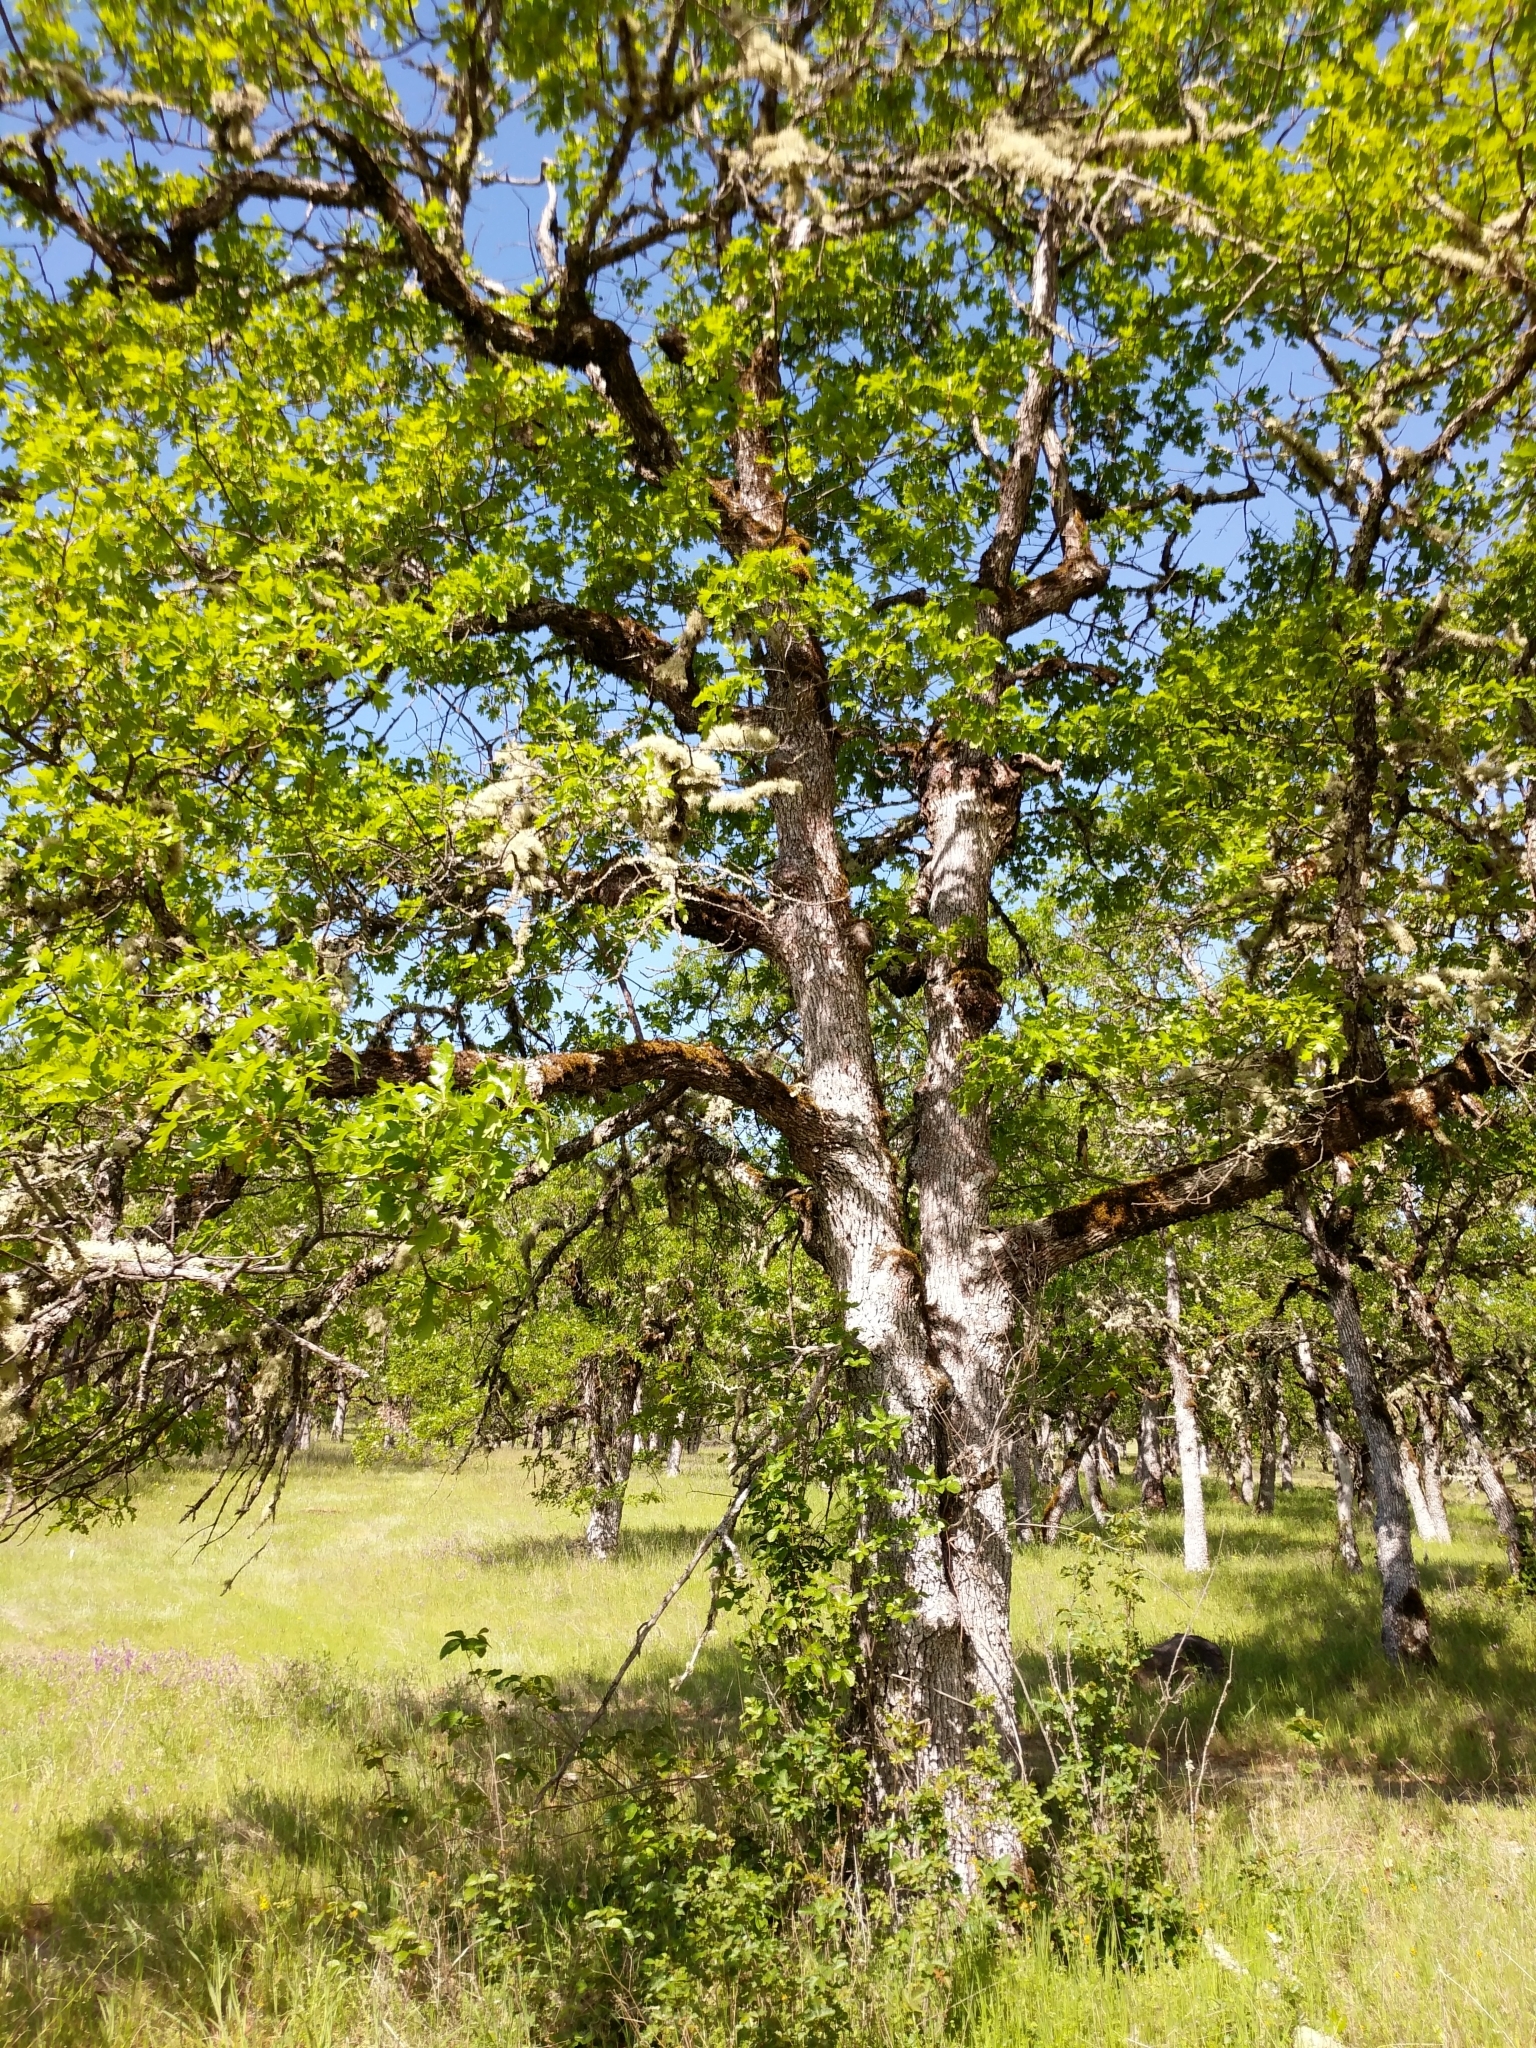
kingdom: Plantae
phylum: Tracheophyta
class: Magnoliopsida
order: Fagales
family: Fagaceae
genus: Quercus
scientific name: Quercus garryana
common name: Garry oak
